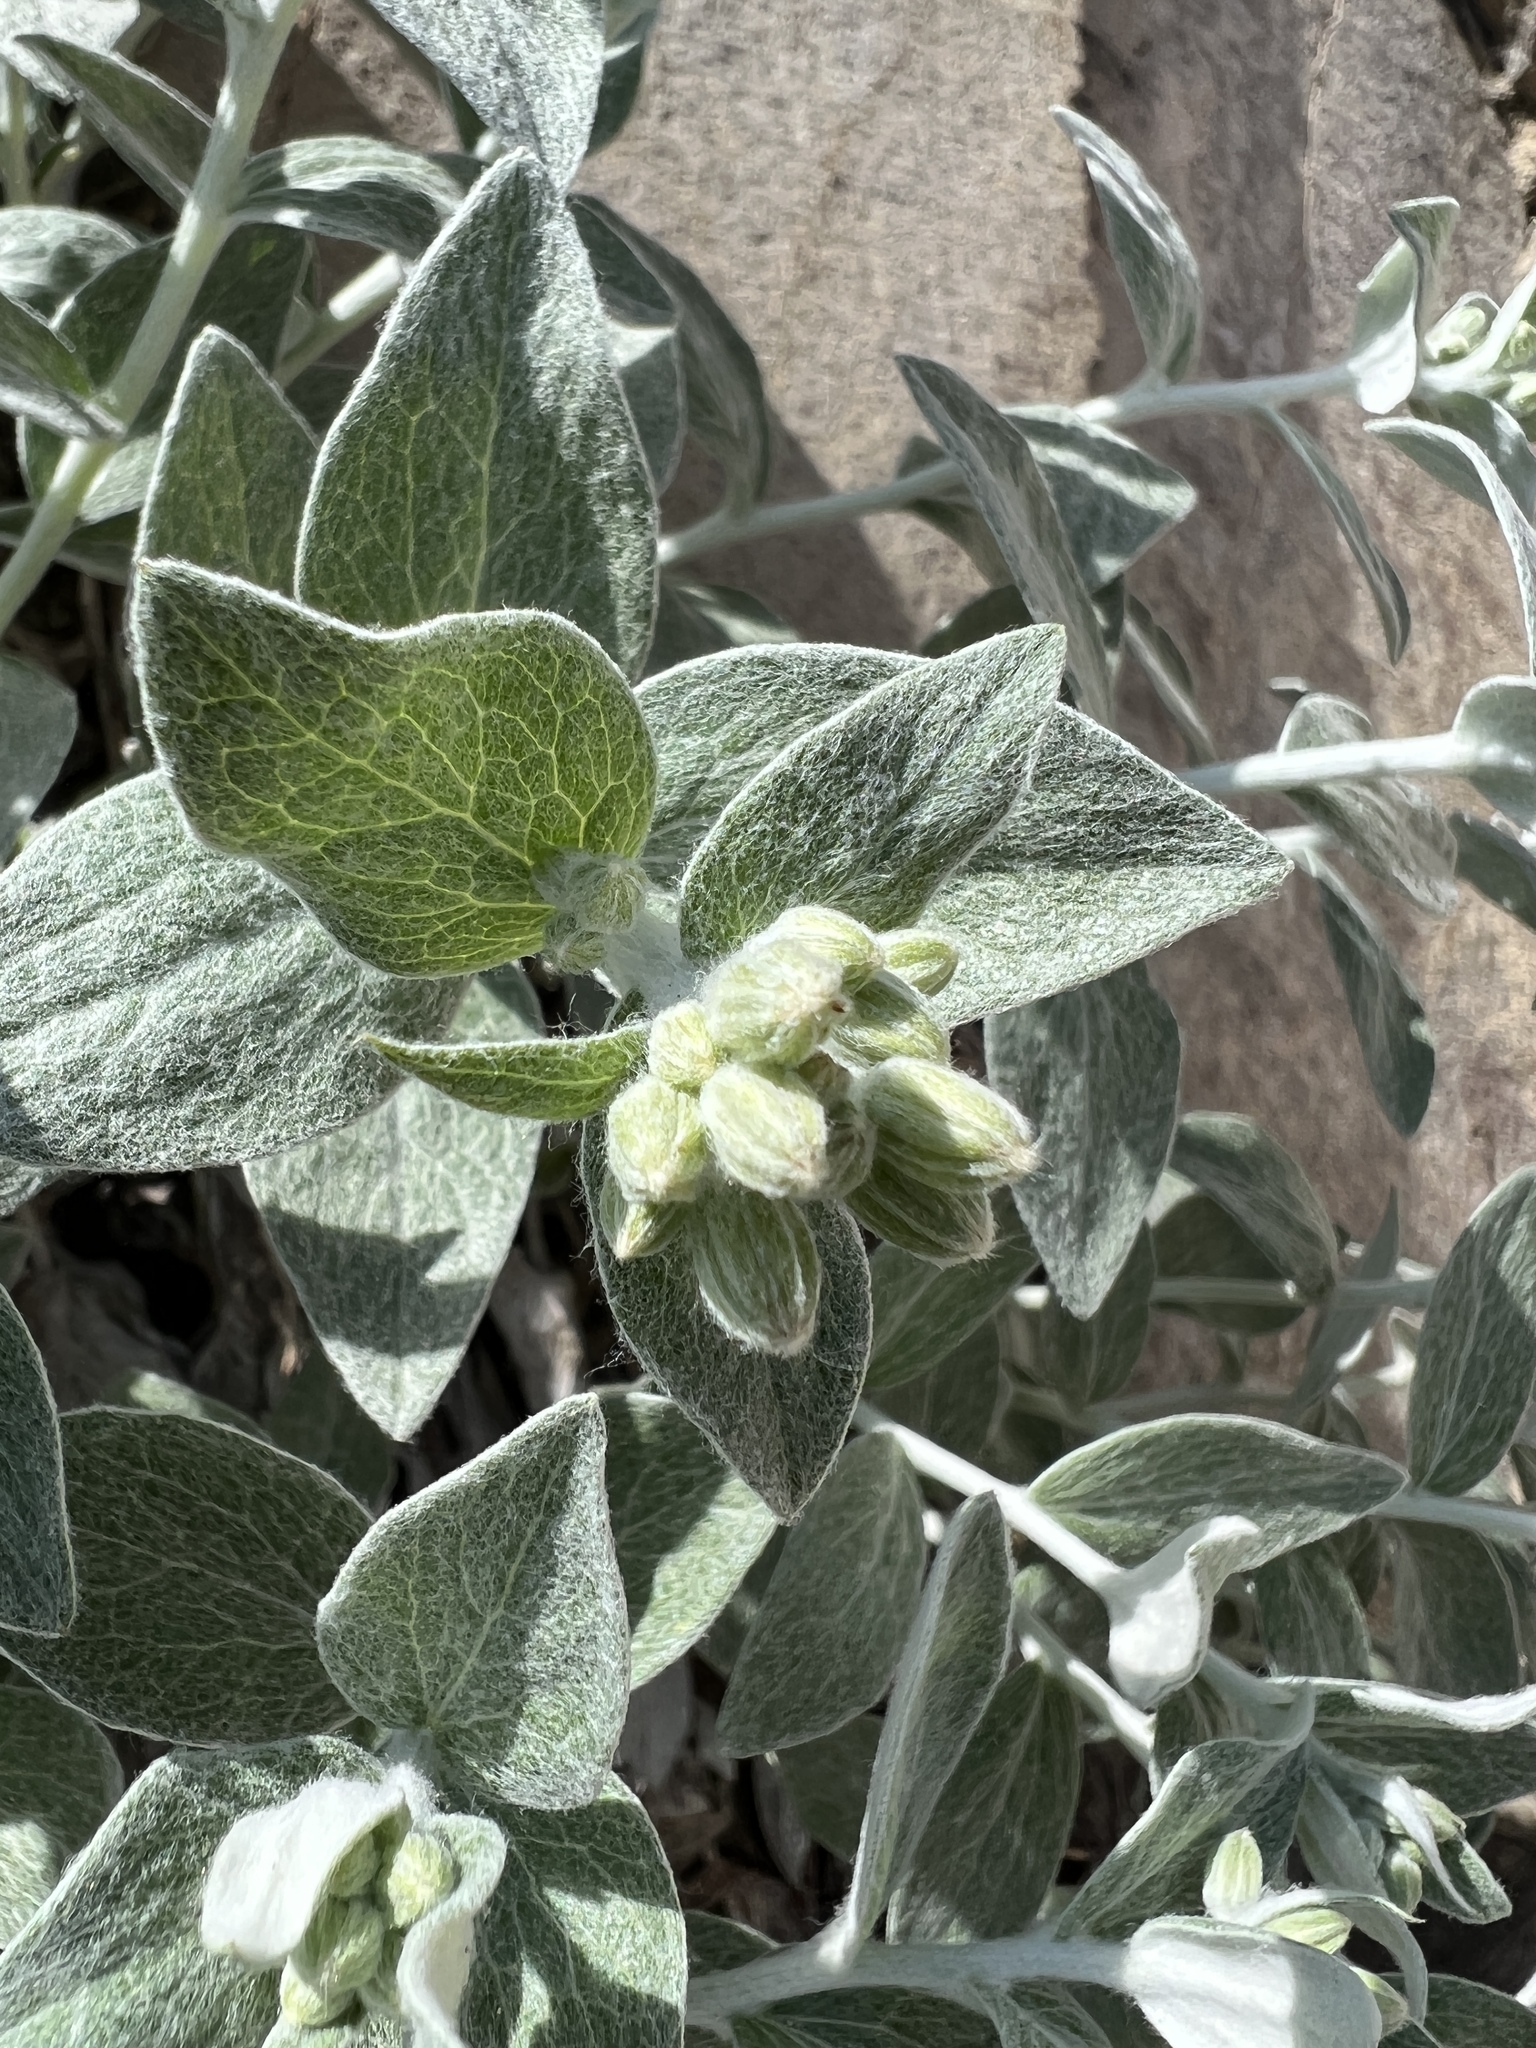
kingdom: Plantae
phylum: Tracheophyta
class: Magnoliopsida
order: Asterales
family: Asteraceae
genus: Luina
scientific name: Luina hypoleuca
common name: Little-leaved luina
